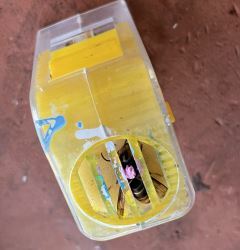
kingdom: Animalia
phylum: Arthropoda
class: Insecta
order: Hymenoptera
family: Vespidae
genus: Vespa
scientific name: Vespa velutina
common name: Asian hornet
